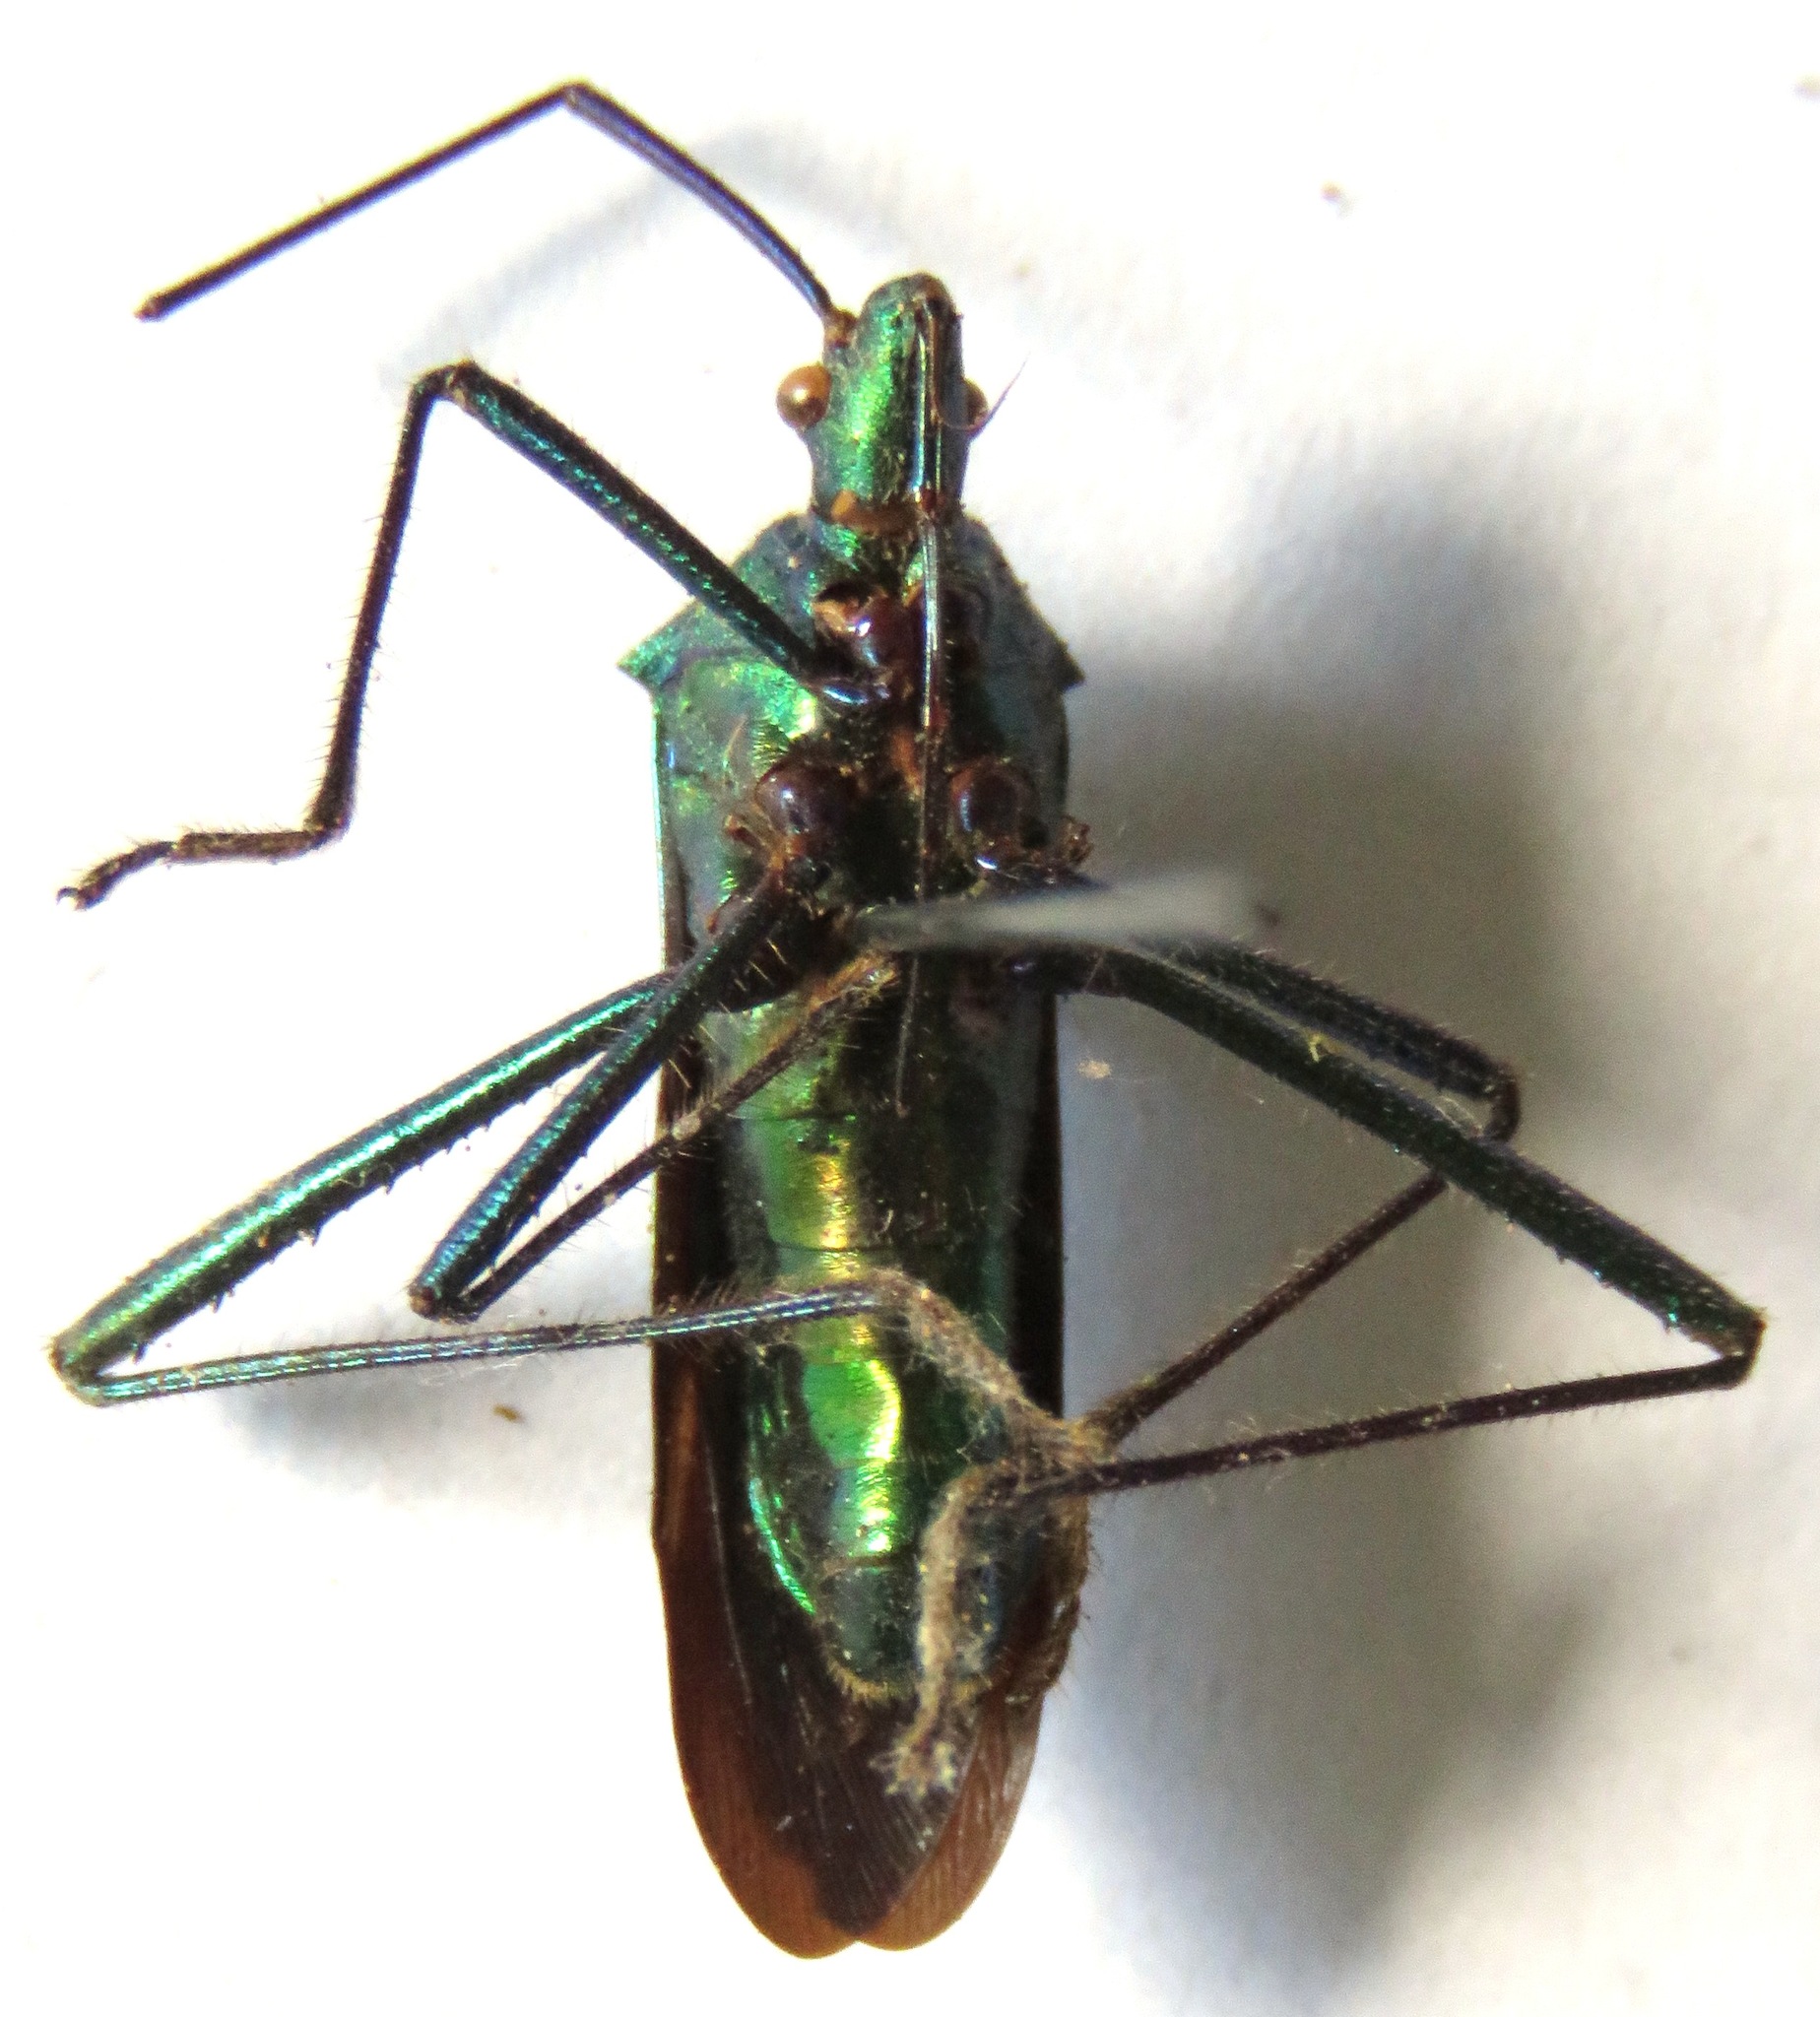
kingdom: Animalia
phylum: Arthropoda
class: Insecta
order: Hemiptera
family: Coreidae
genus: Phthiadema
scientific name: Phthiadema smaragdina
